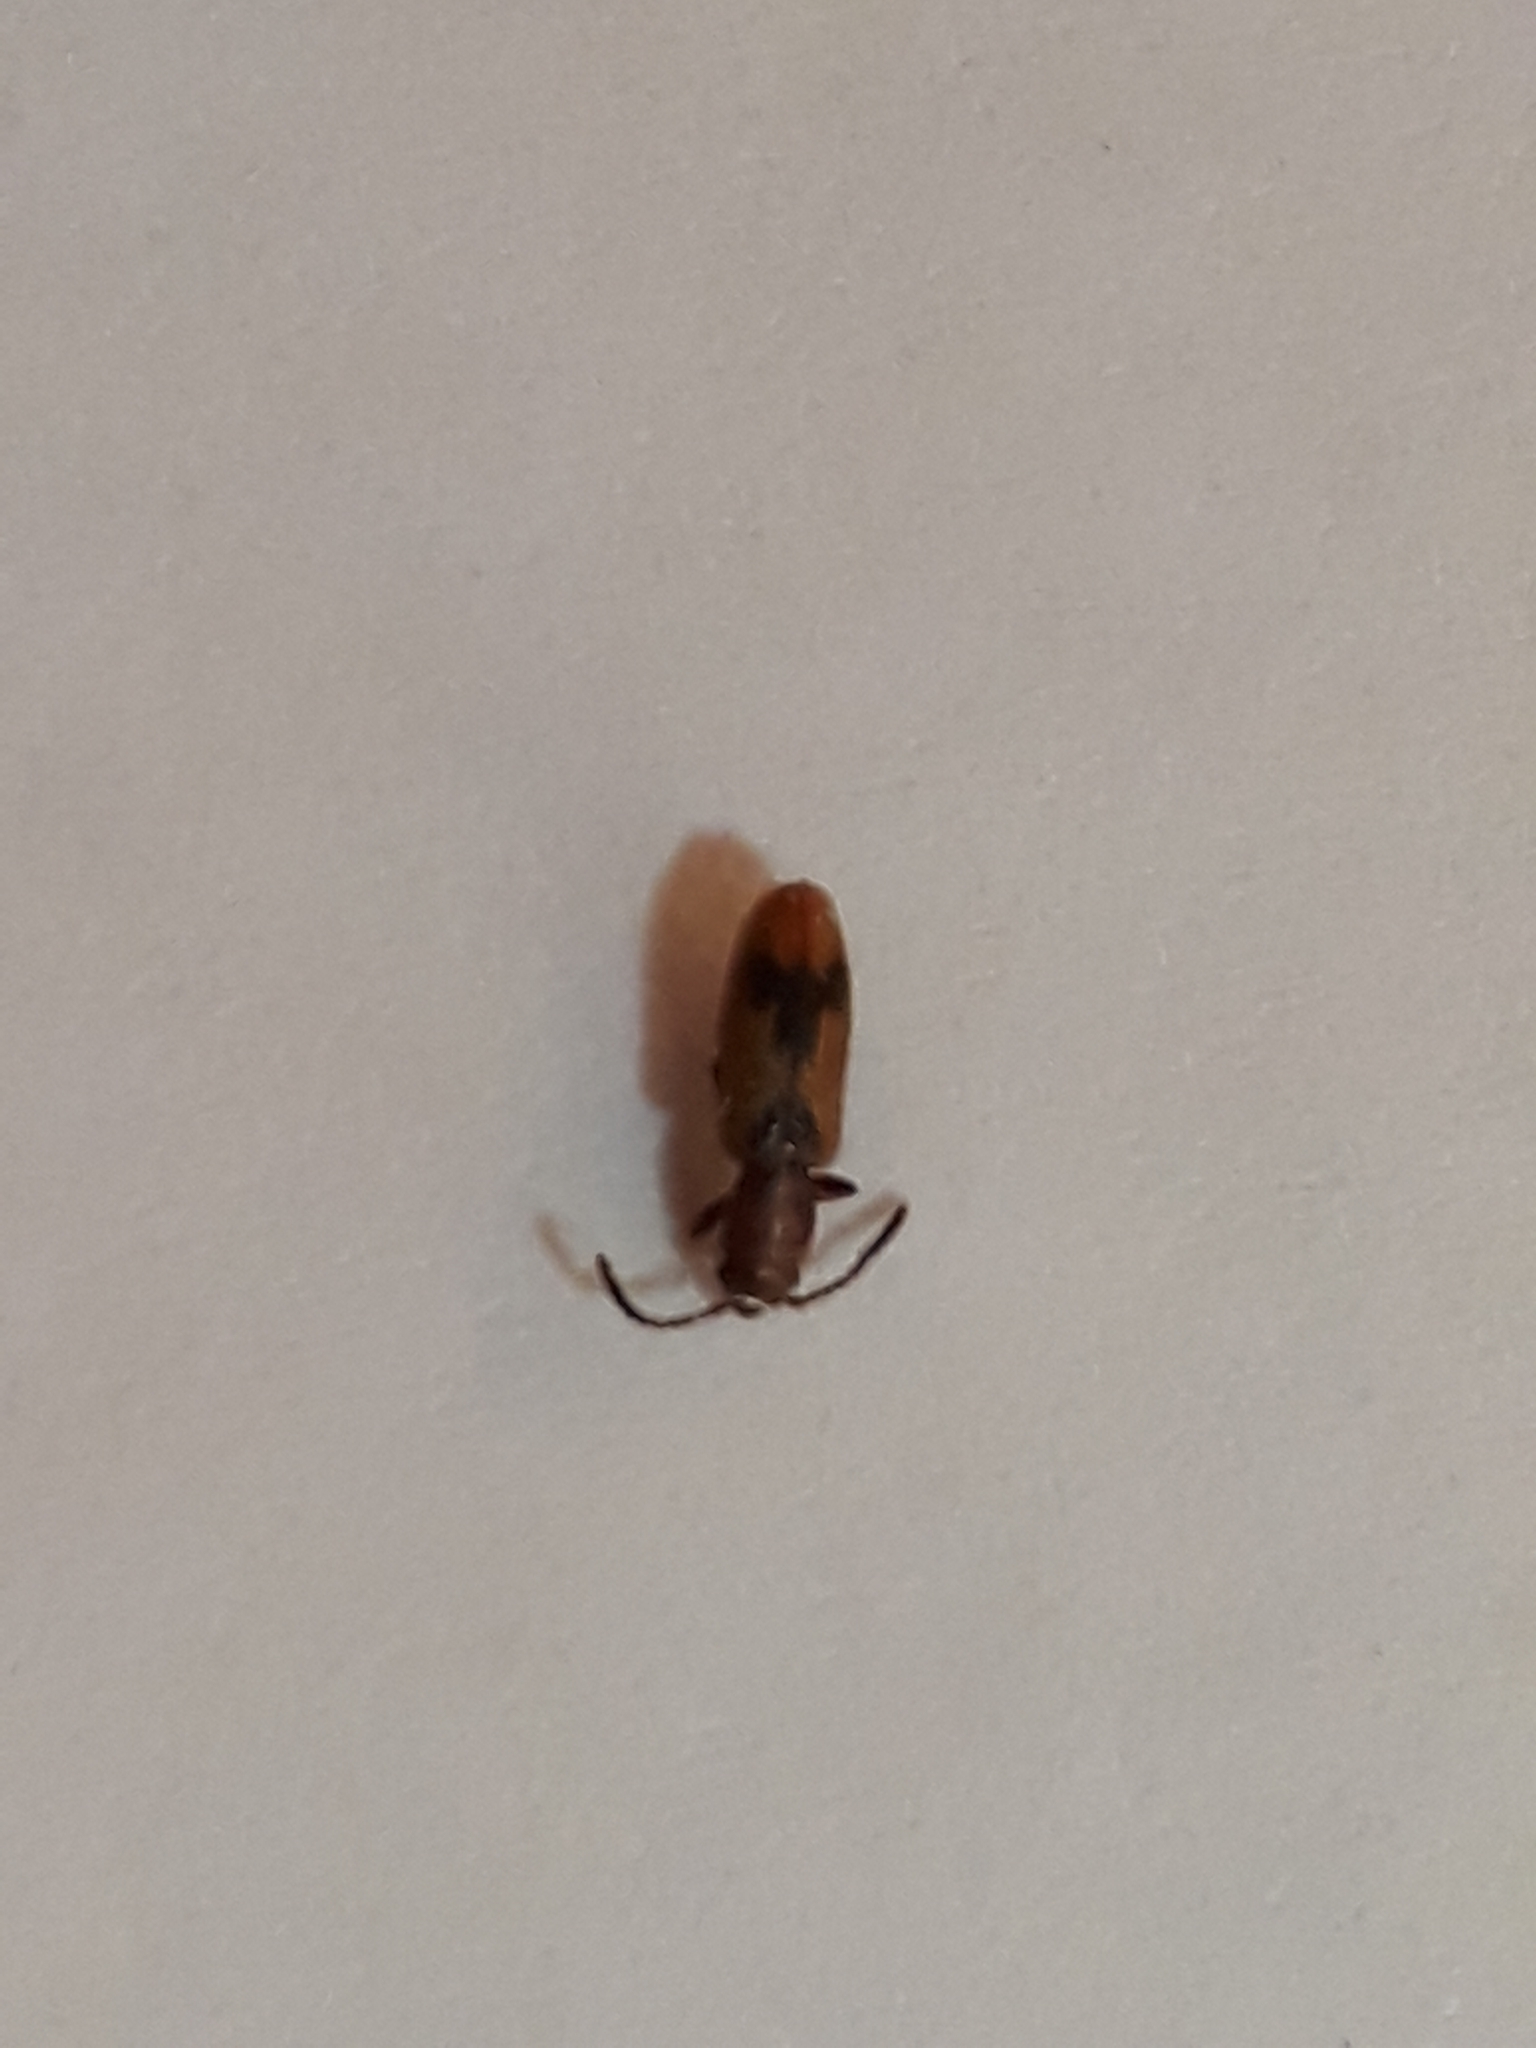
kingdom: Animalia
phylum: Arthropoda
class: Insecta
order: Coleoptera
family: Silvanidae
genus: Cryptamorpha
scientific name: Cryptamorpha desjardinsi
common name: Cryptamorpha
